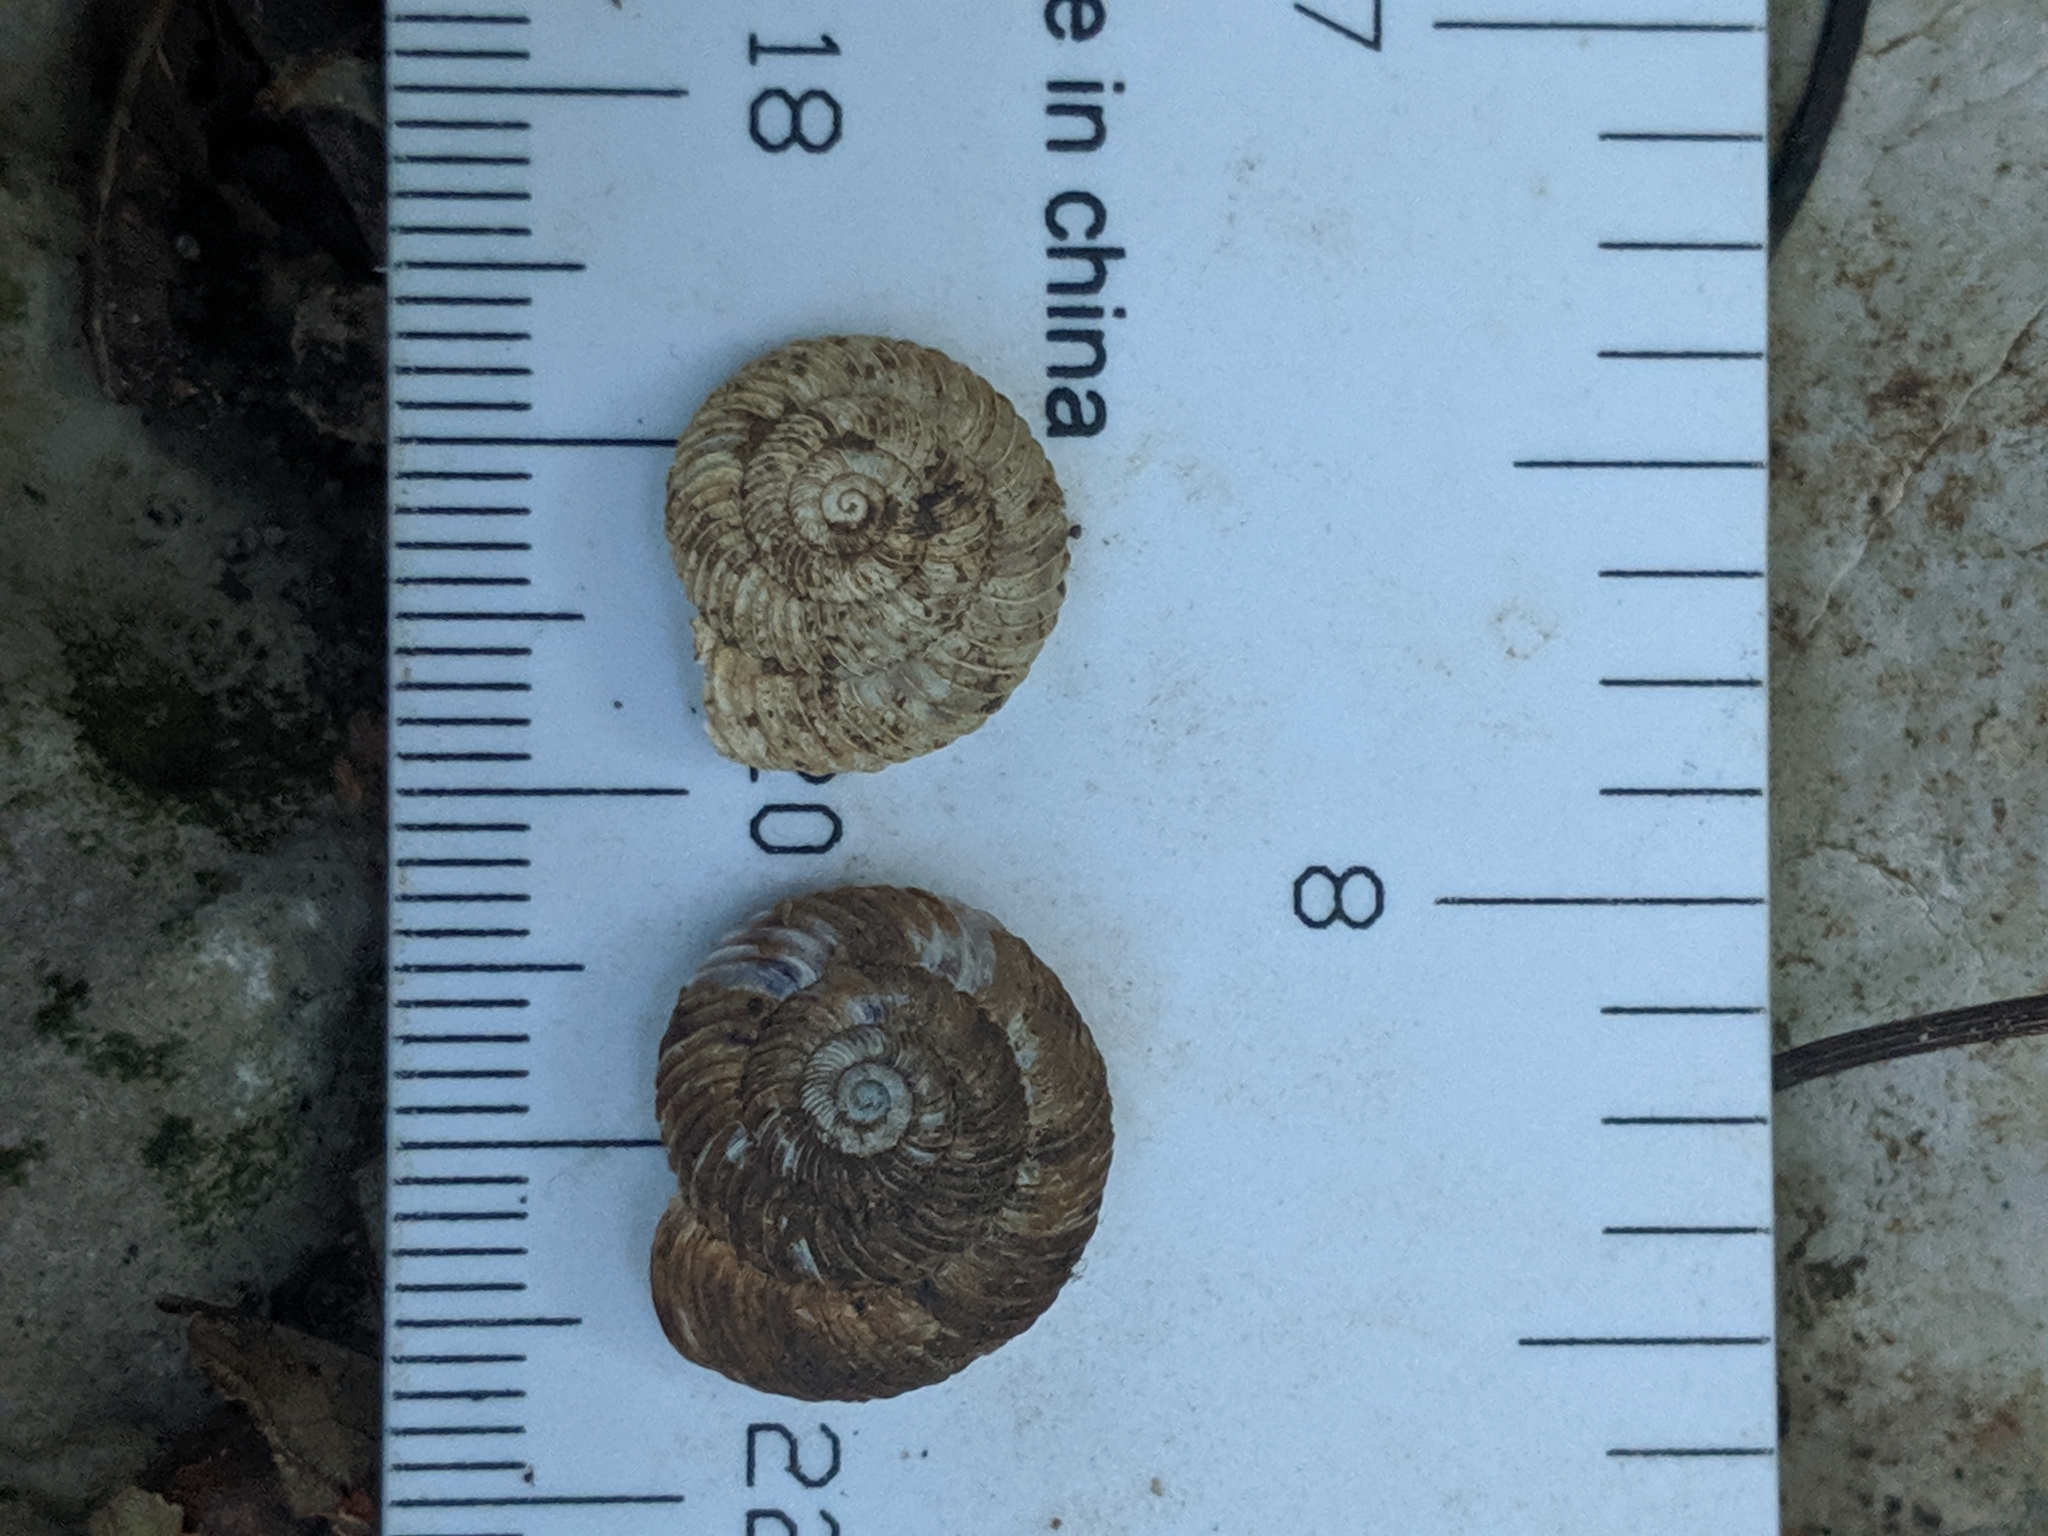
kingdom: Animalia
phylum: Mollusca
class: Gastropoda
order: Stylommatophora
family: Discidae
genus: Anguispira
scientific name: Anguispira alternata
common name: Flamed tigersnail
